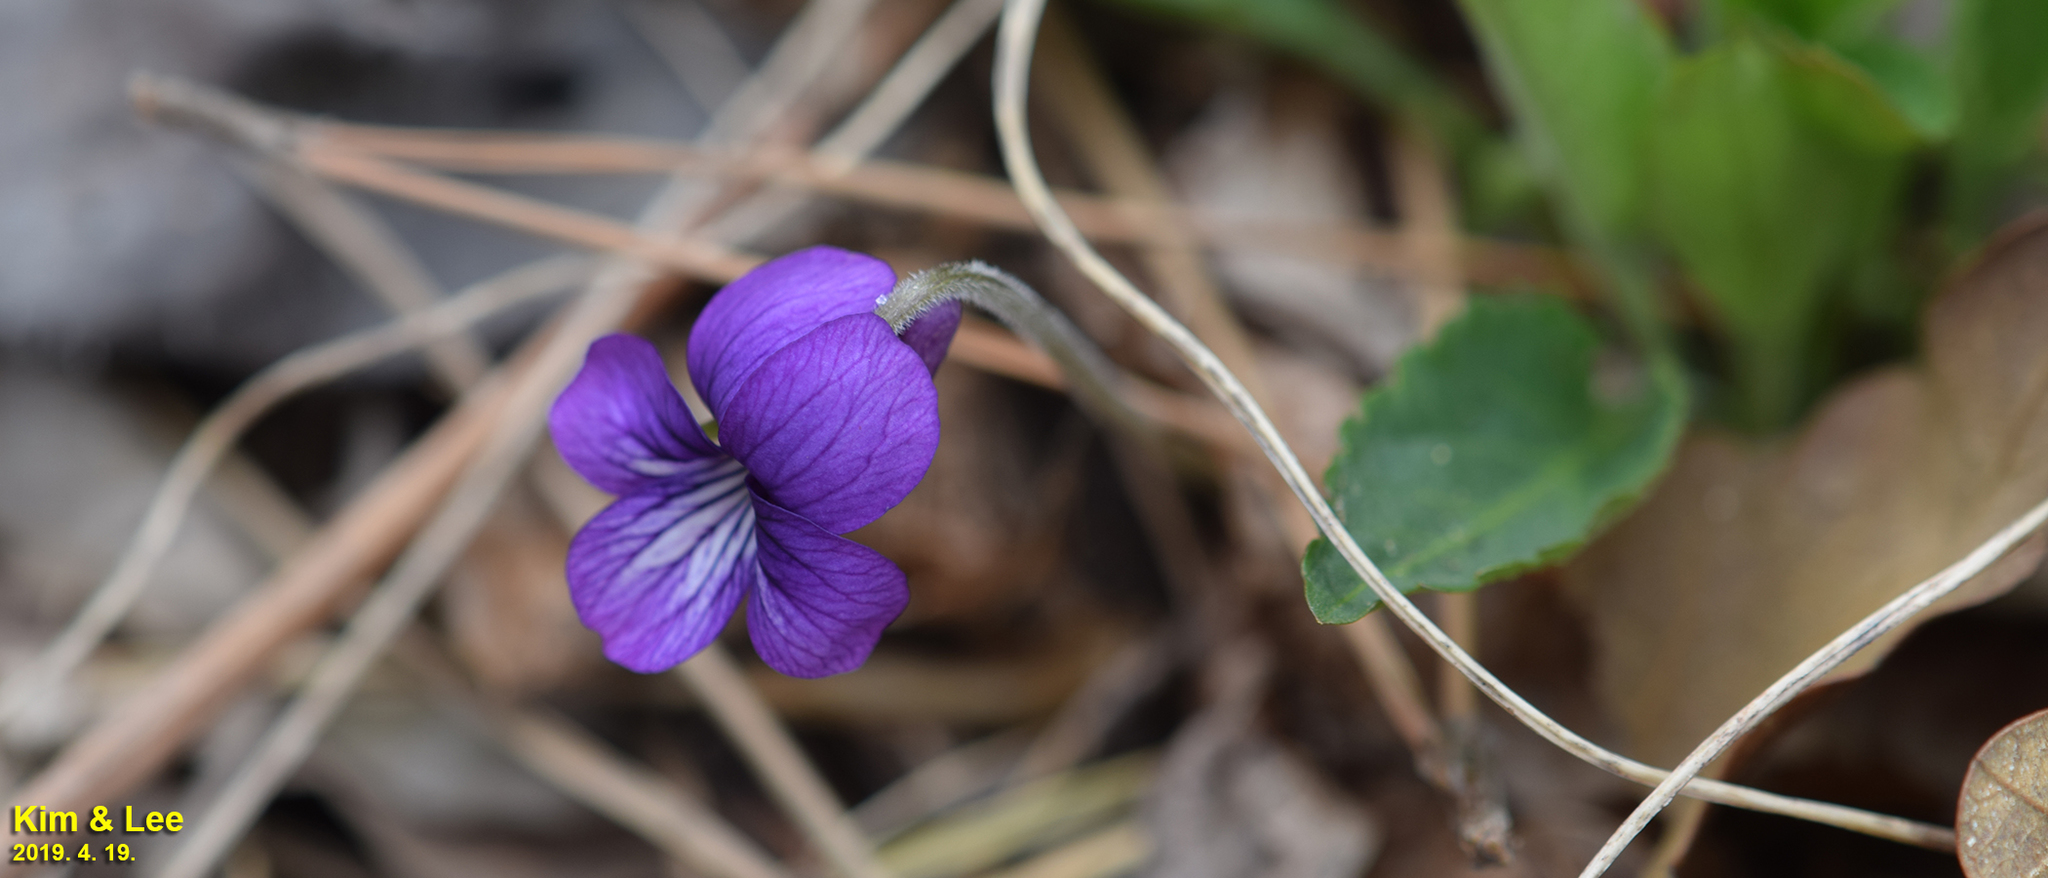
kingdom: Plantae
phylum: Tracheophyta
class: Magnoliopsida
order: Malpighiales
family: Violaceae
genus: Viola
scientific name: Viola phalacrocarpa
